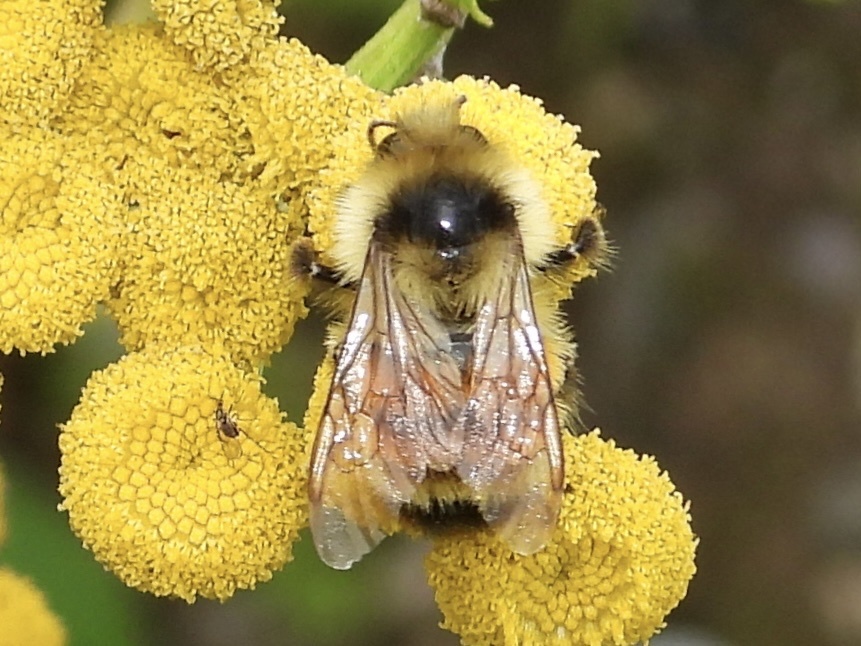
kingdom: Animalia
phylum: Arthropoda
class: Insecta
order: Hymenoptera
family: Apidae
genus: Bombus
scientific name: Bombus ternarius
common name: Tri-colored bumble bee
